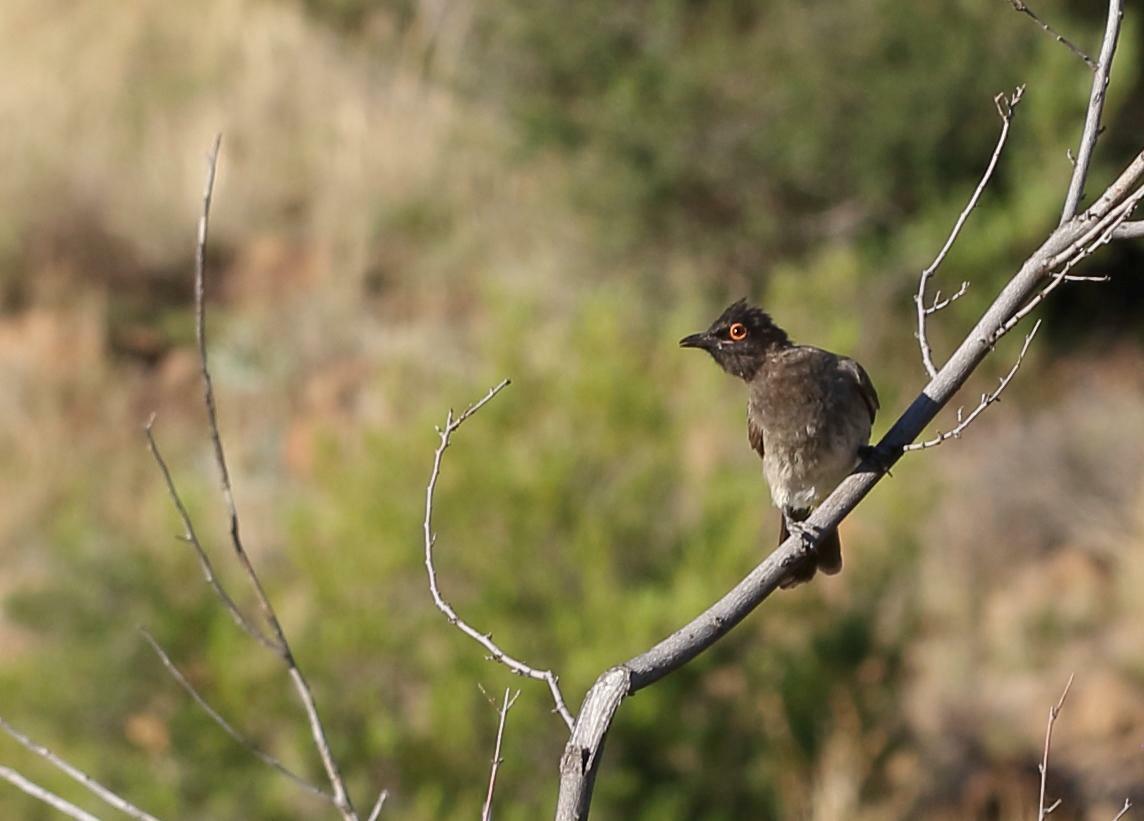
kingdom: Animalia
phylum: Chordata
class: Aves
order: Passeriformes
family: Pycnonotidae
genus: Pycnonotus
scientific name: Pycnonotus nigricans
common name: African red-eyed bulbul
